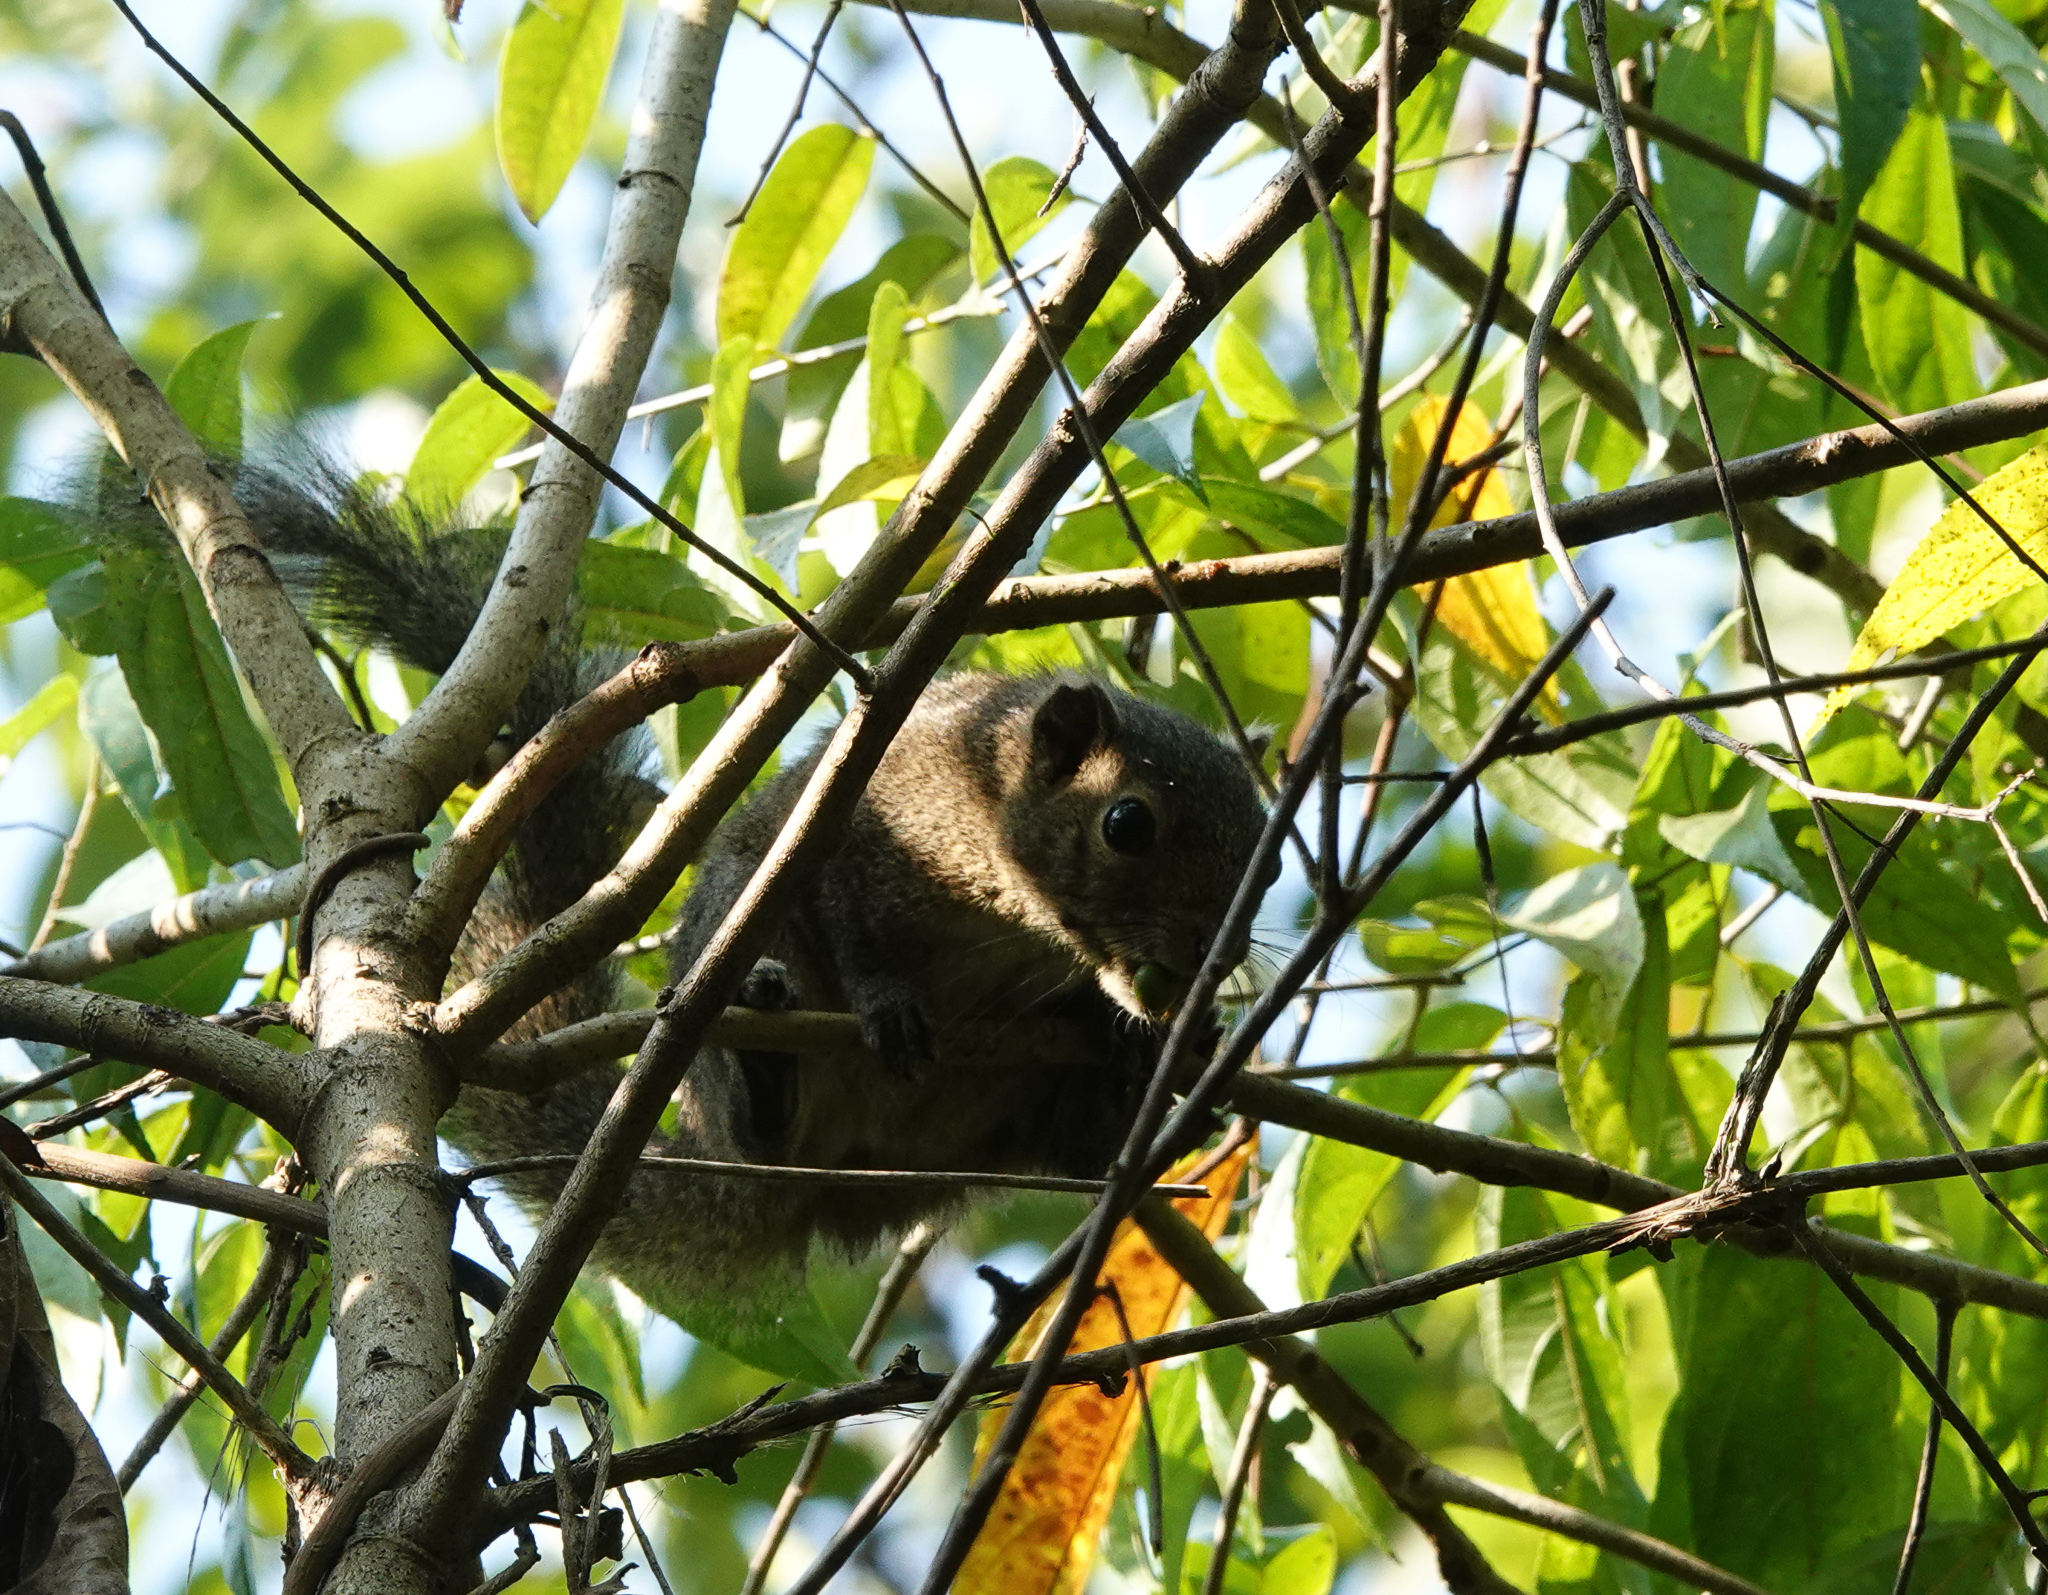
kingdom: Animalia
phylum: Chordata
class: Mammalia
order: Rodentia
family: Sciuridae
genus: Callosciurus
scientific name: Callosciurus pygerythrus
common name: Irrawaddy squirrel
